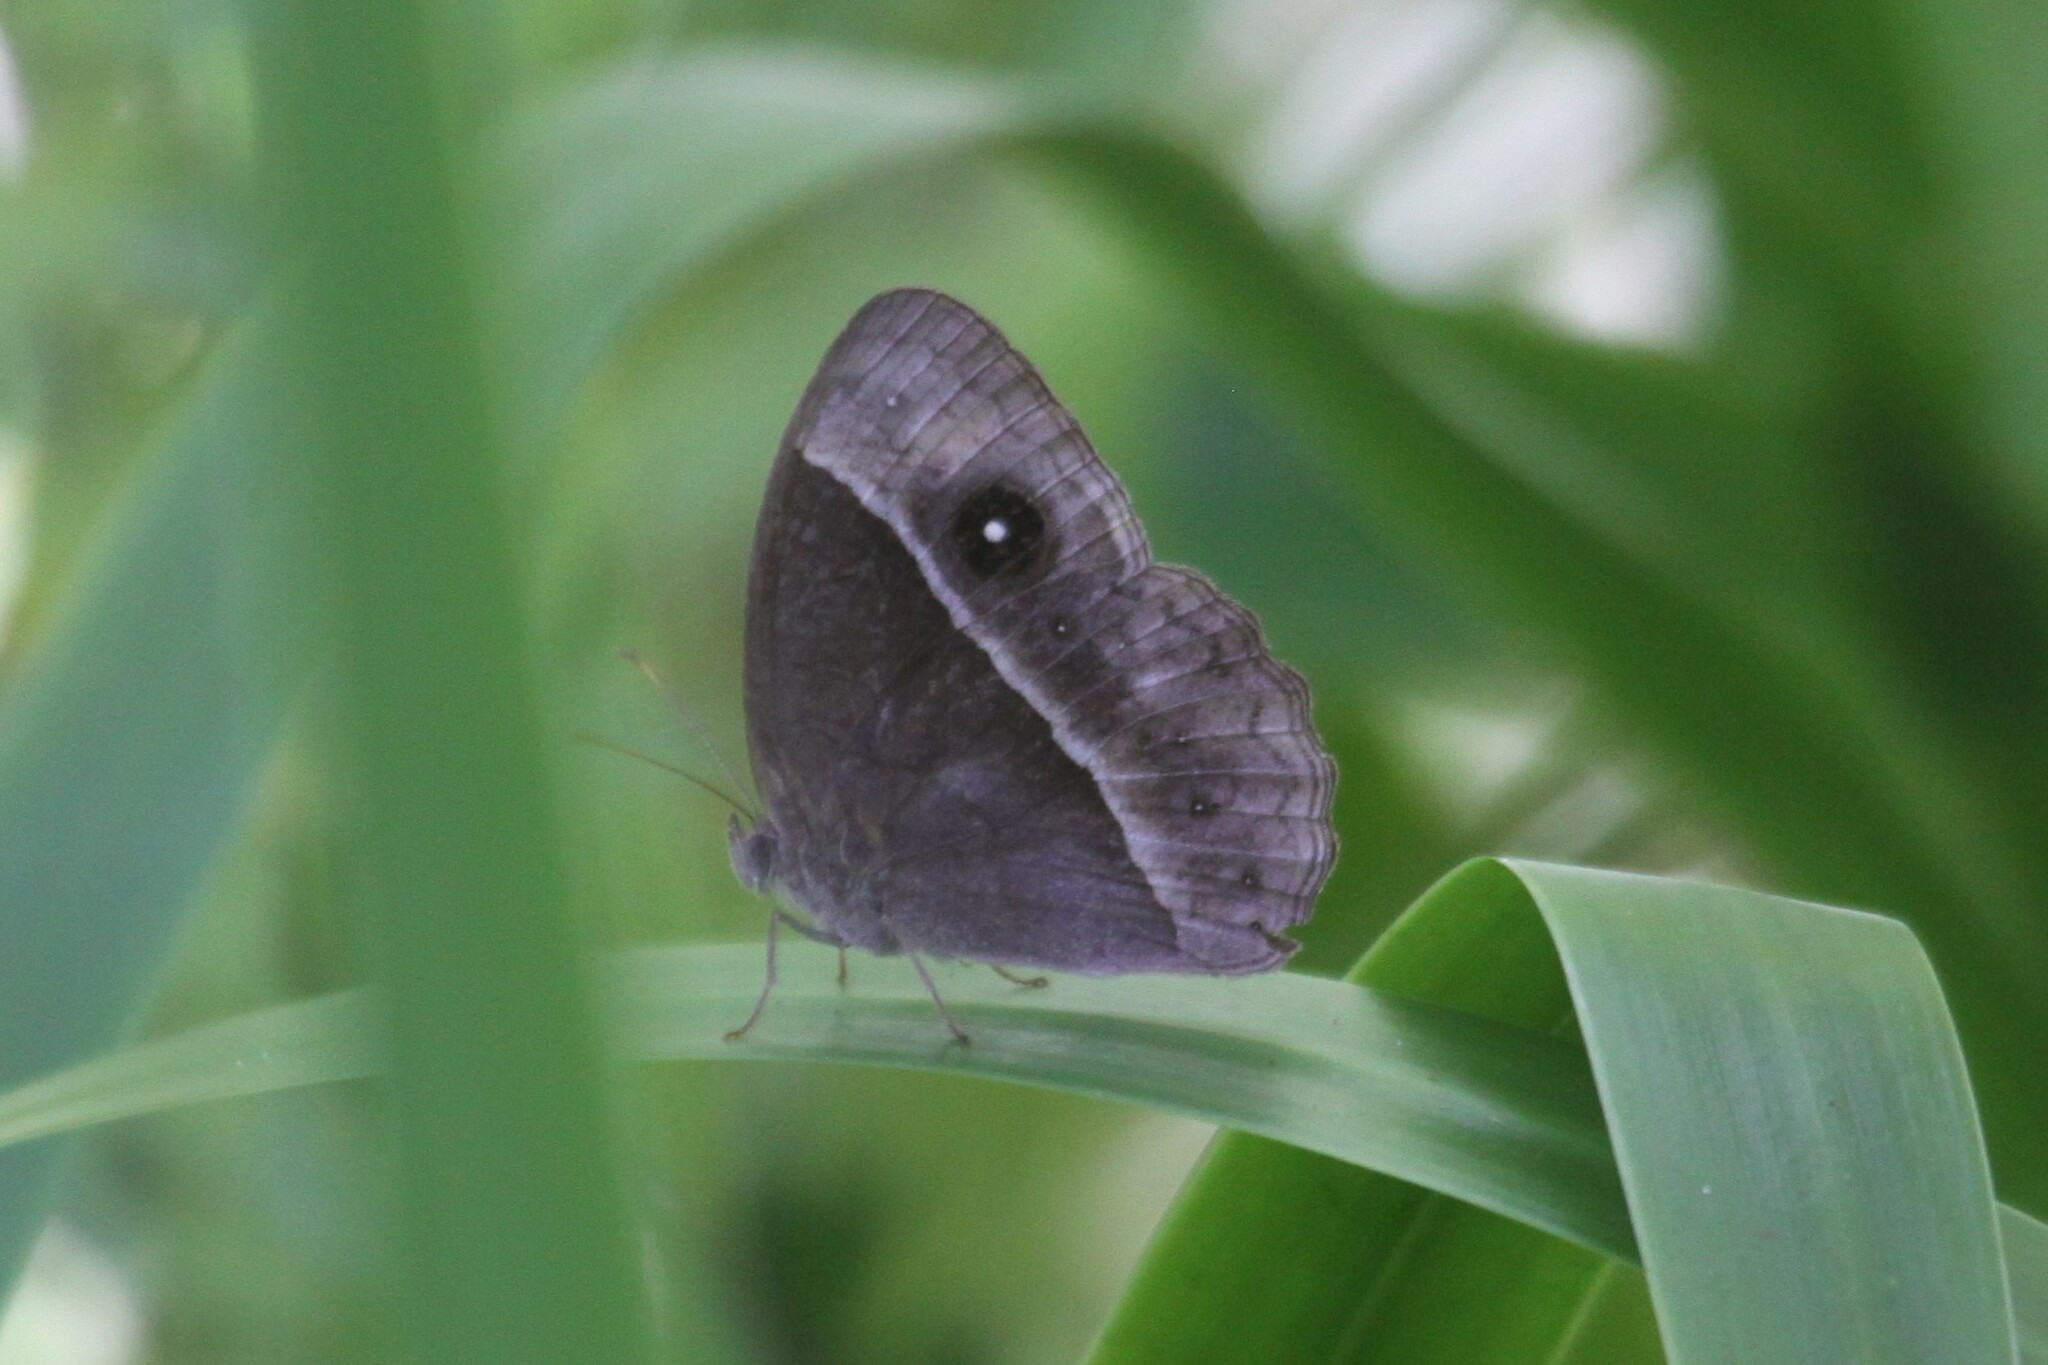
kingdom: Animalia
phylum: Arthropoda
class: Insecta
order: Lepidoptera
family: Nymphalidae
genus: Mycalesis
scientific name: Mycalesis rhacotis
